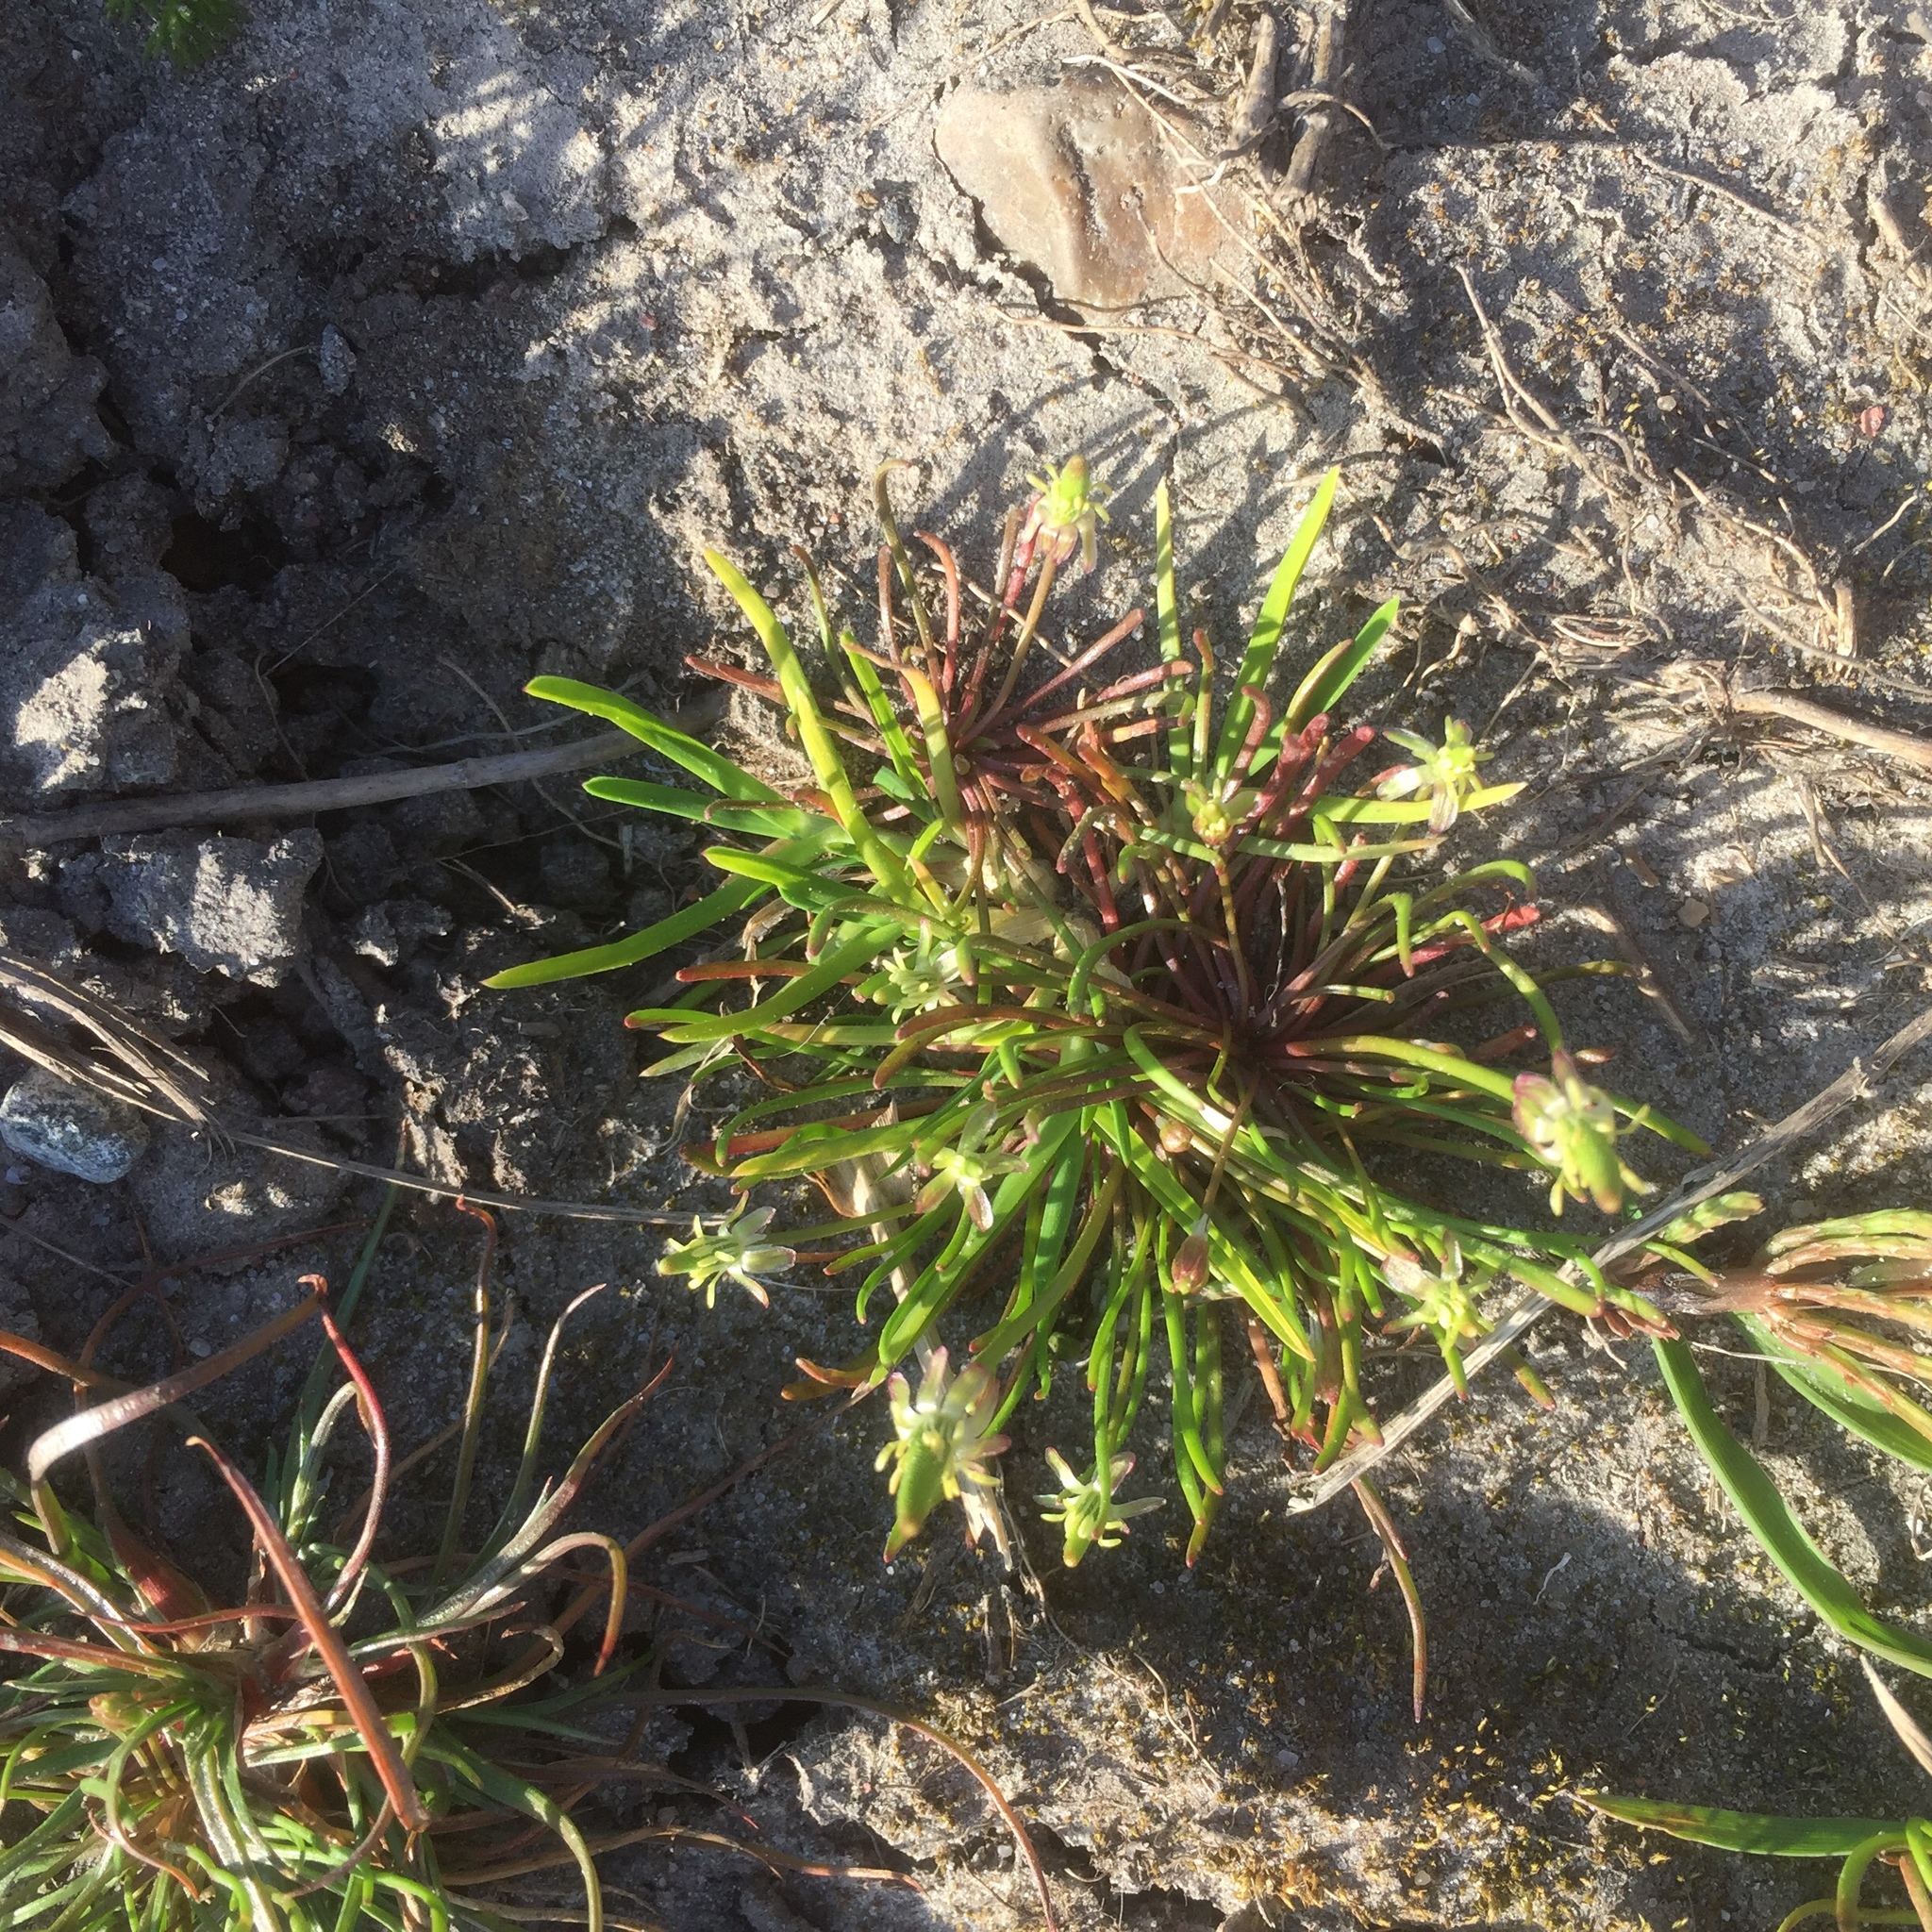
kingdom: Plantae
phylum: Tracheophyta
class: Magnoliopsida
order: Ranunculales
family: Ranunculaceae
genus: Myosurus
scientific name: Myosurus minimus
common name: Mousetail
